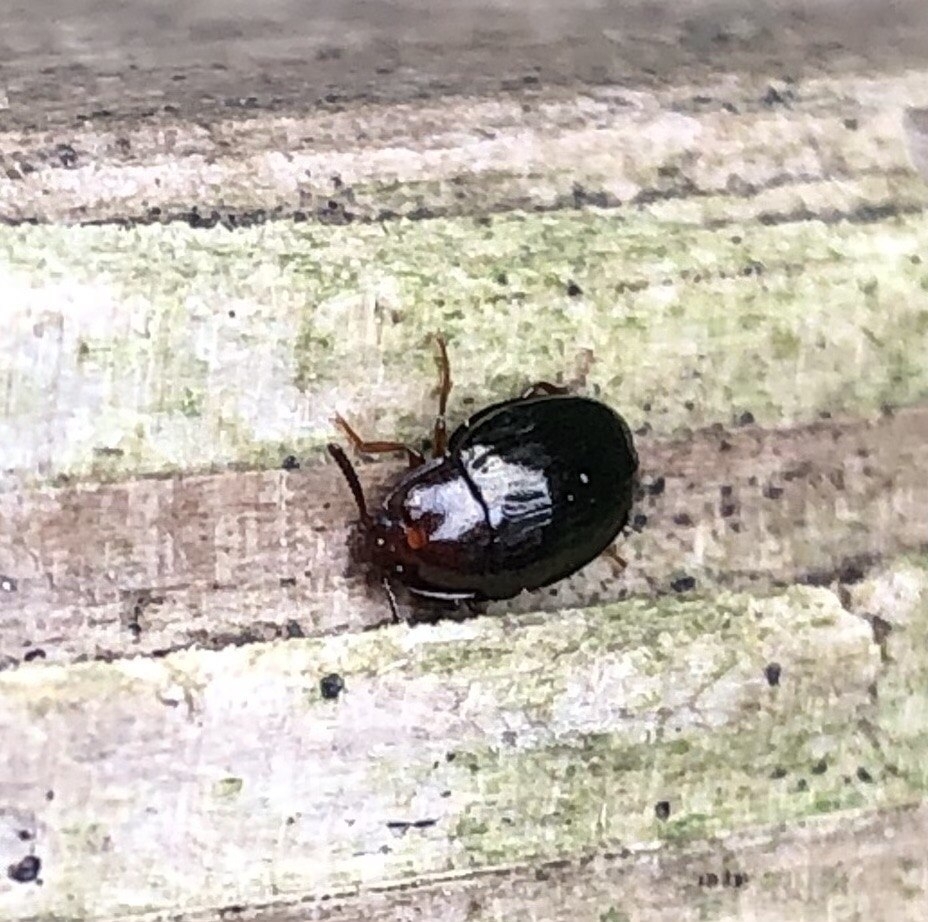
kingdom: Animalia
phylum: Arthropoda
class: Insecta
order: Coleoptera
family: Tenebrionidae
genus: Blapstinus
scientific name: Blapstinus metallicus
